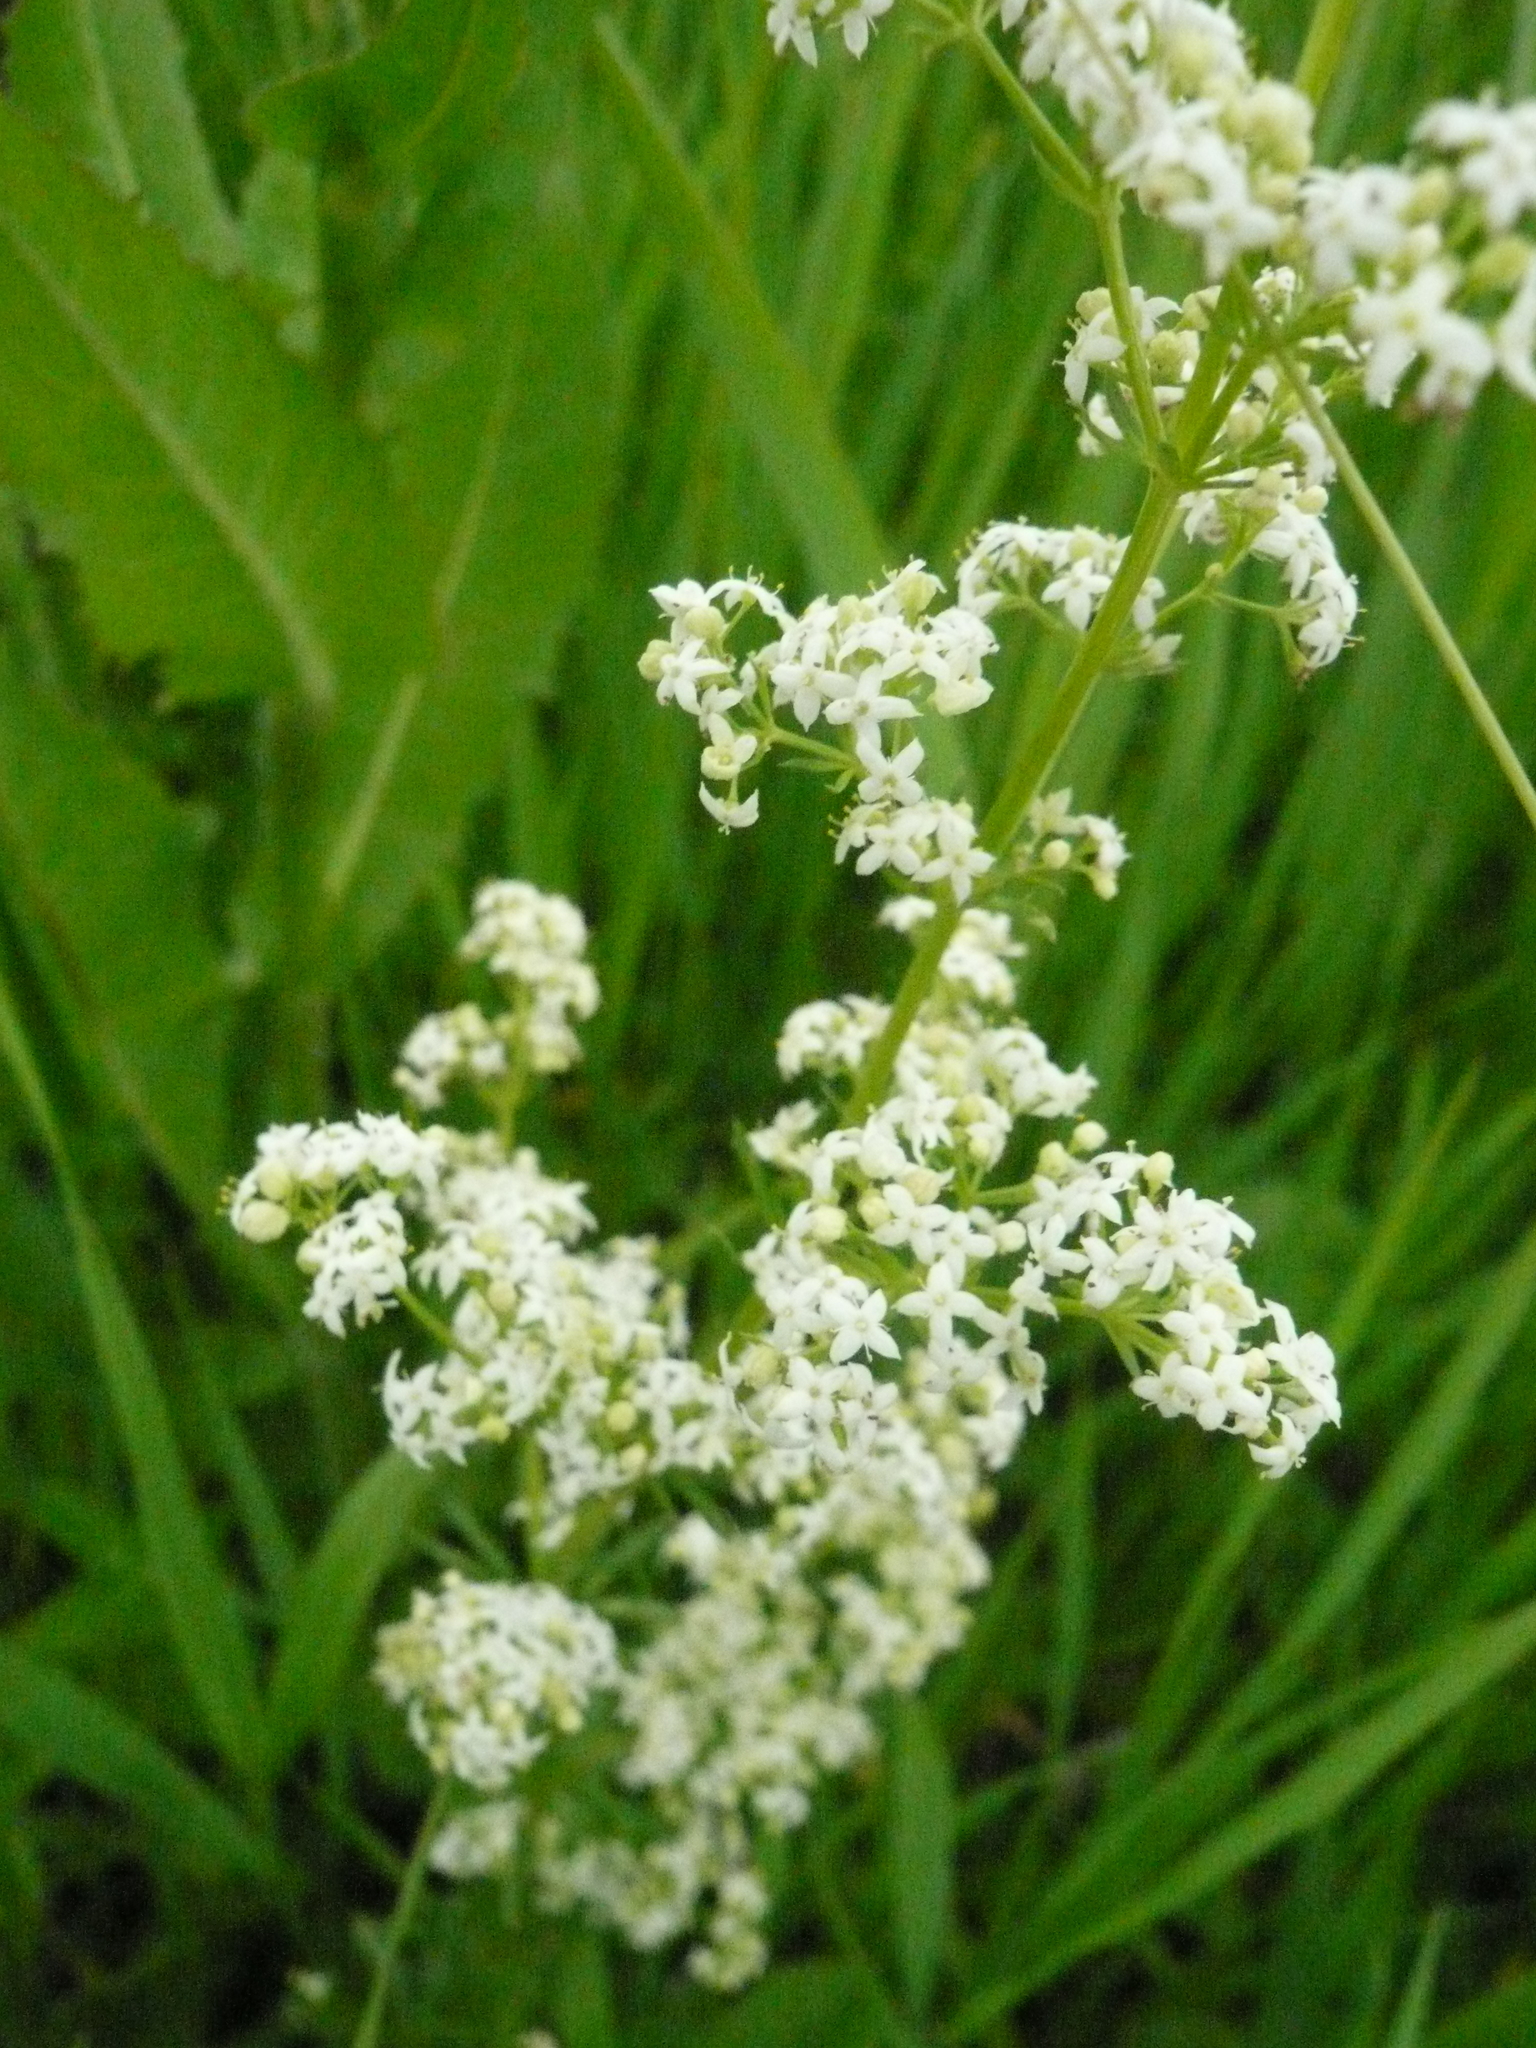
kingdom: Plantae
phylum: Tracheophyta
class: Magnoliopsida
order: Gentianales
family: Rubiaceae
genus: Galium
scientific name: Galium mollugo
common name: Hedge bedstraw
